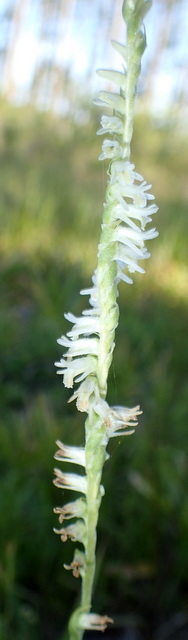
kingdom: Plantae
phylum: Tracheophyta
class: Liliopsida
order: Asparagales
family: Orchidaceae
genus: Spiranthes
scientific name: Spiranthes vernalis
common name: Spring ladies'-tresses
